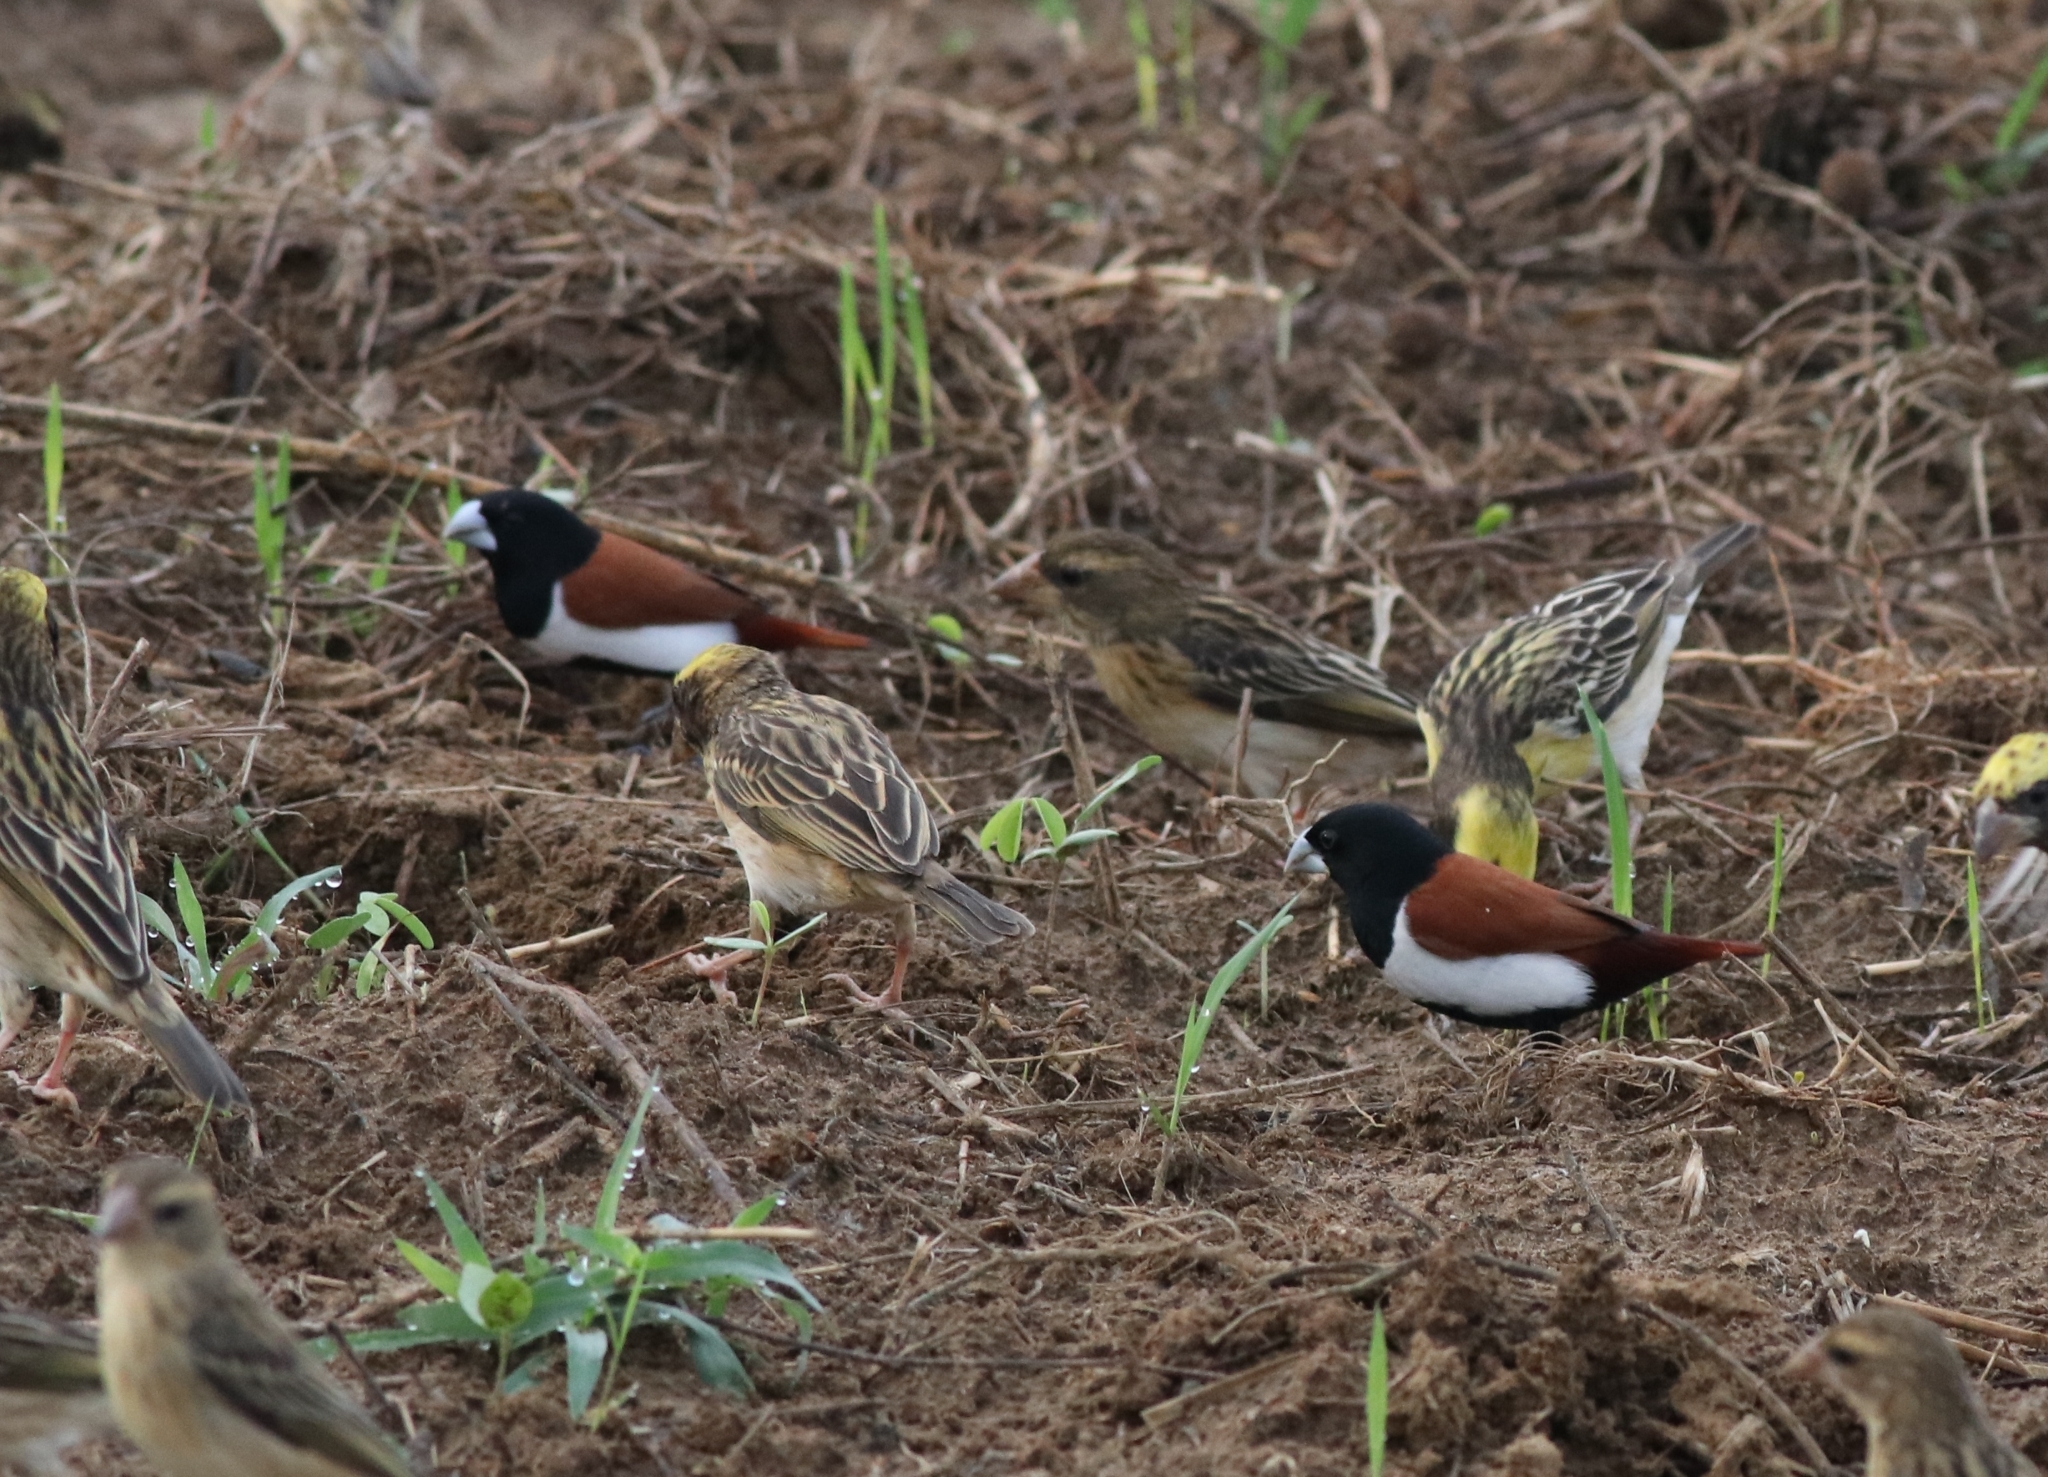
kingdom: Animalia
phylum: Chordata
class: Aves
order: Passeriformes
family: Estrildidae
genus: Lonchura
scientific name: Lonchura malacca
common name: Tricolored munia
